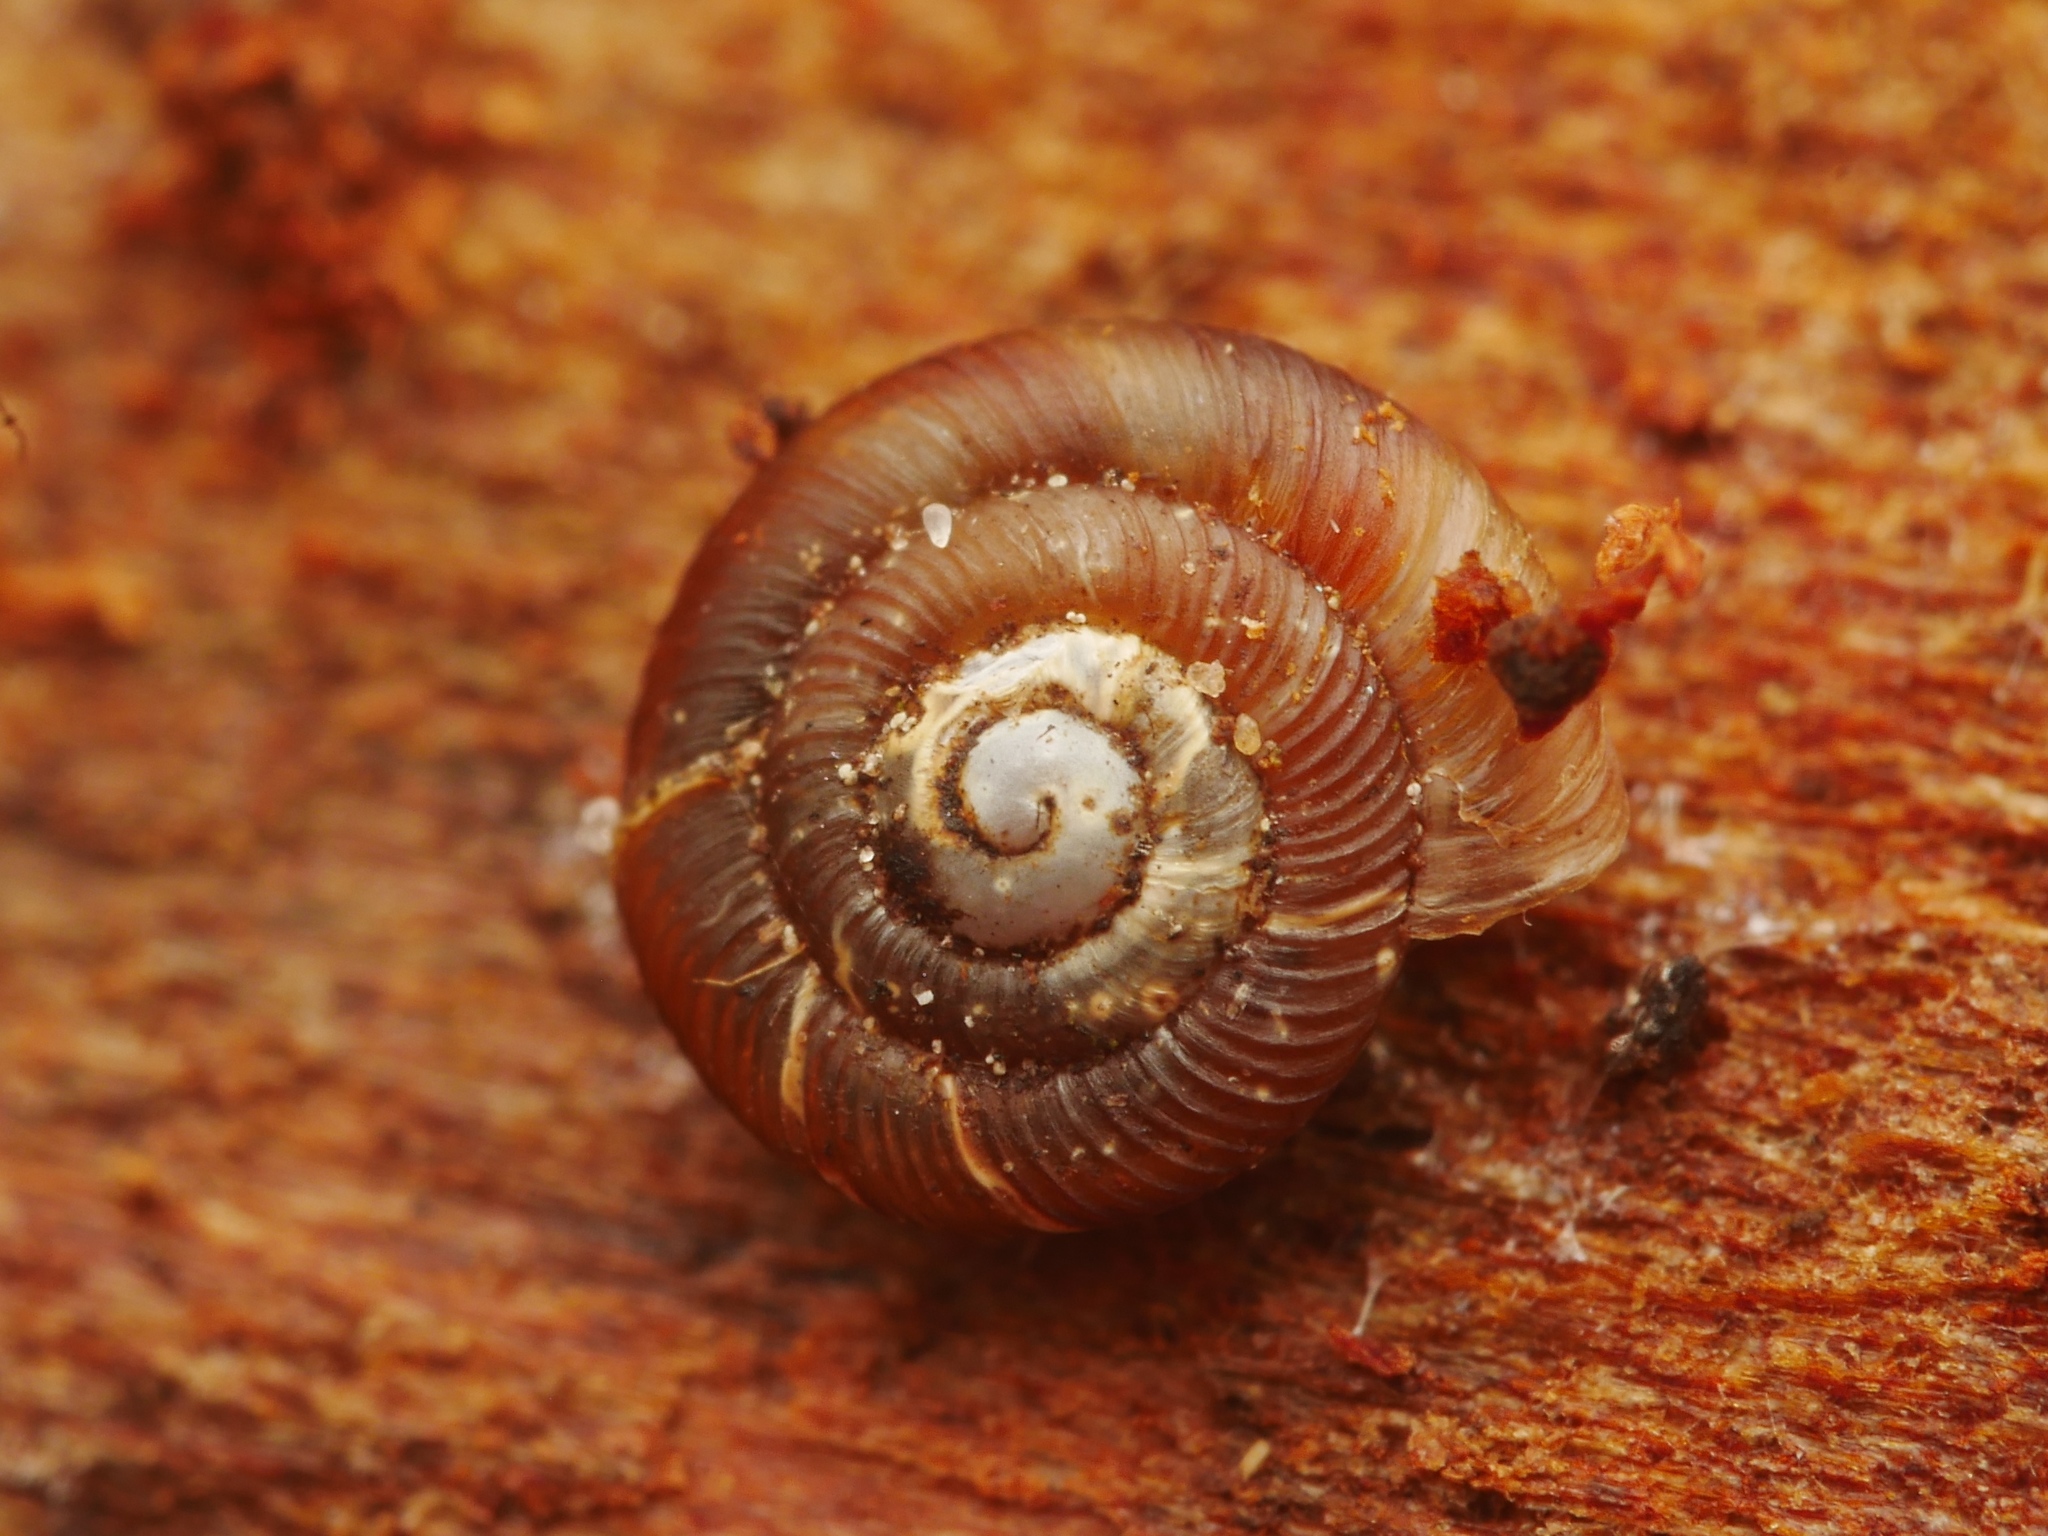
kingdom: Animalia
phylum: Mollusca
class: Gastropoda
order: Stylommatophora
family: Discidae
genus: Discus
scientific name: Discus rotundatus
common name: Rounded snail
